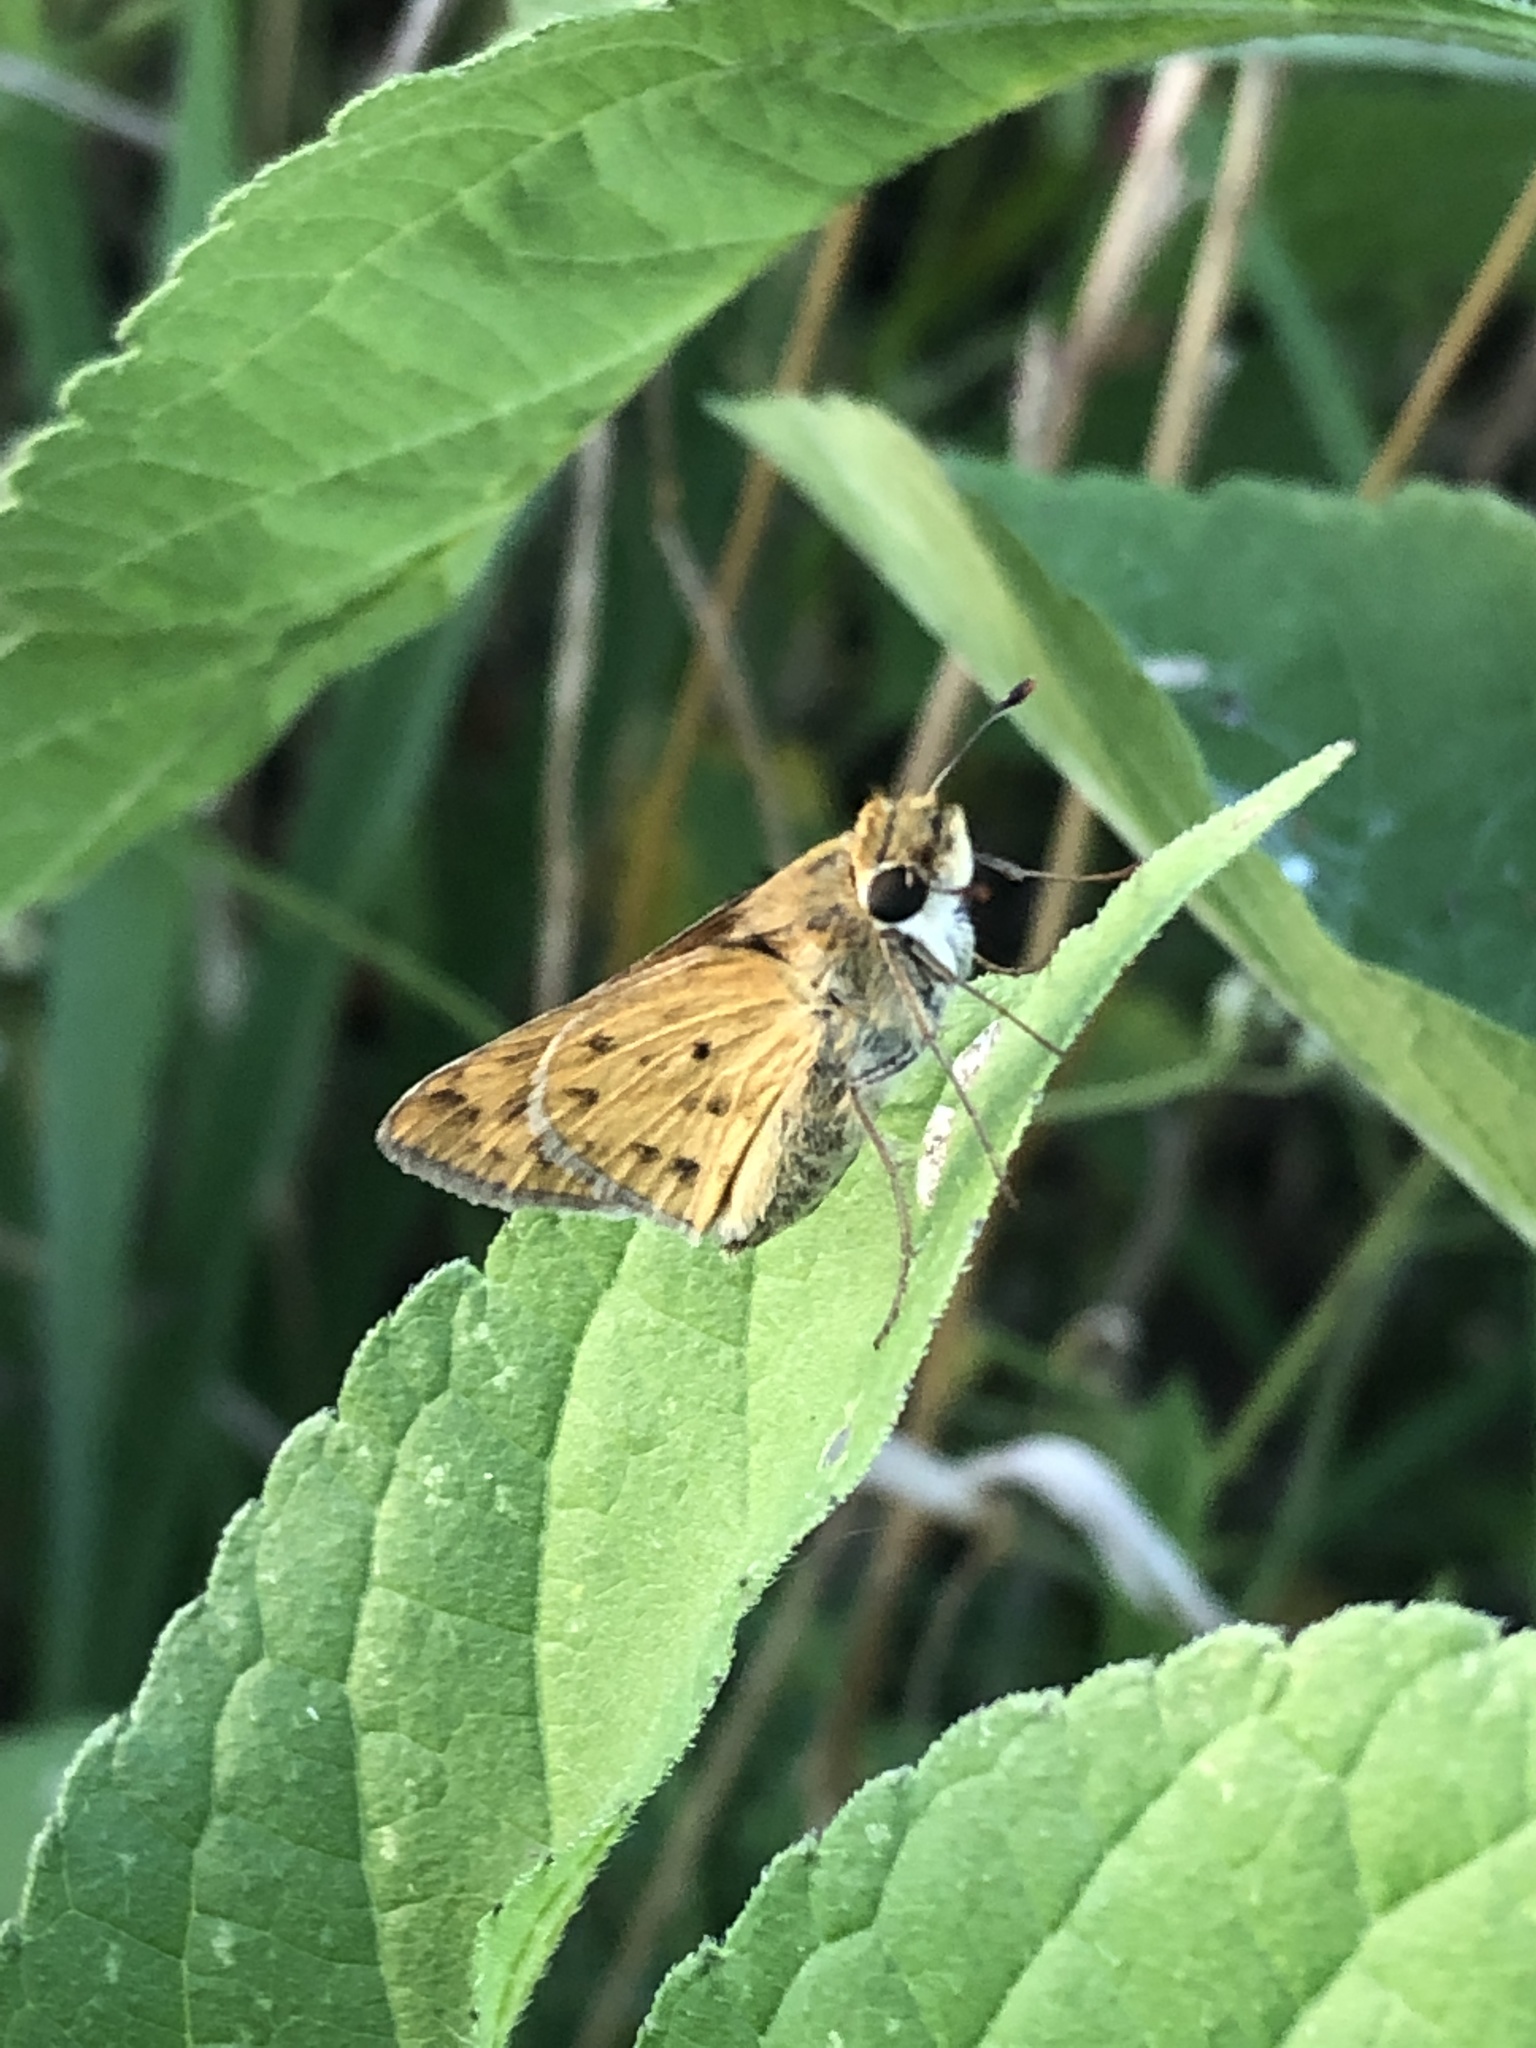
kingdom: Animalia
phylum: Arthropoda
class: Insecta
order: Lepidoptera
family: Hesperiidae
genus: Hylephila
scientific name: Hylephila phyleus
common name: Fiery skipper
